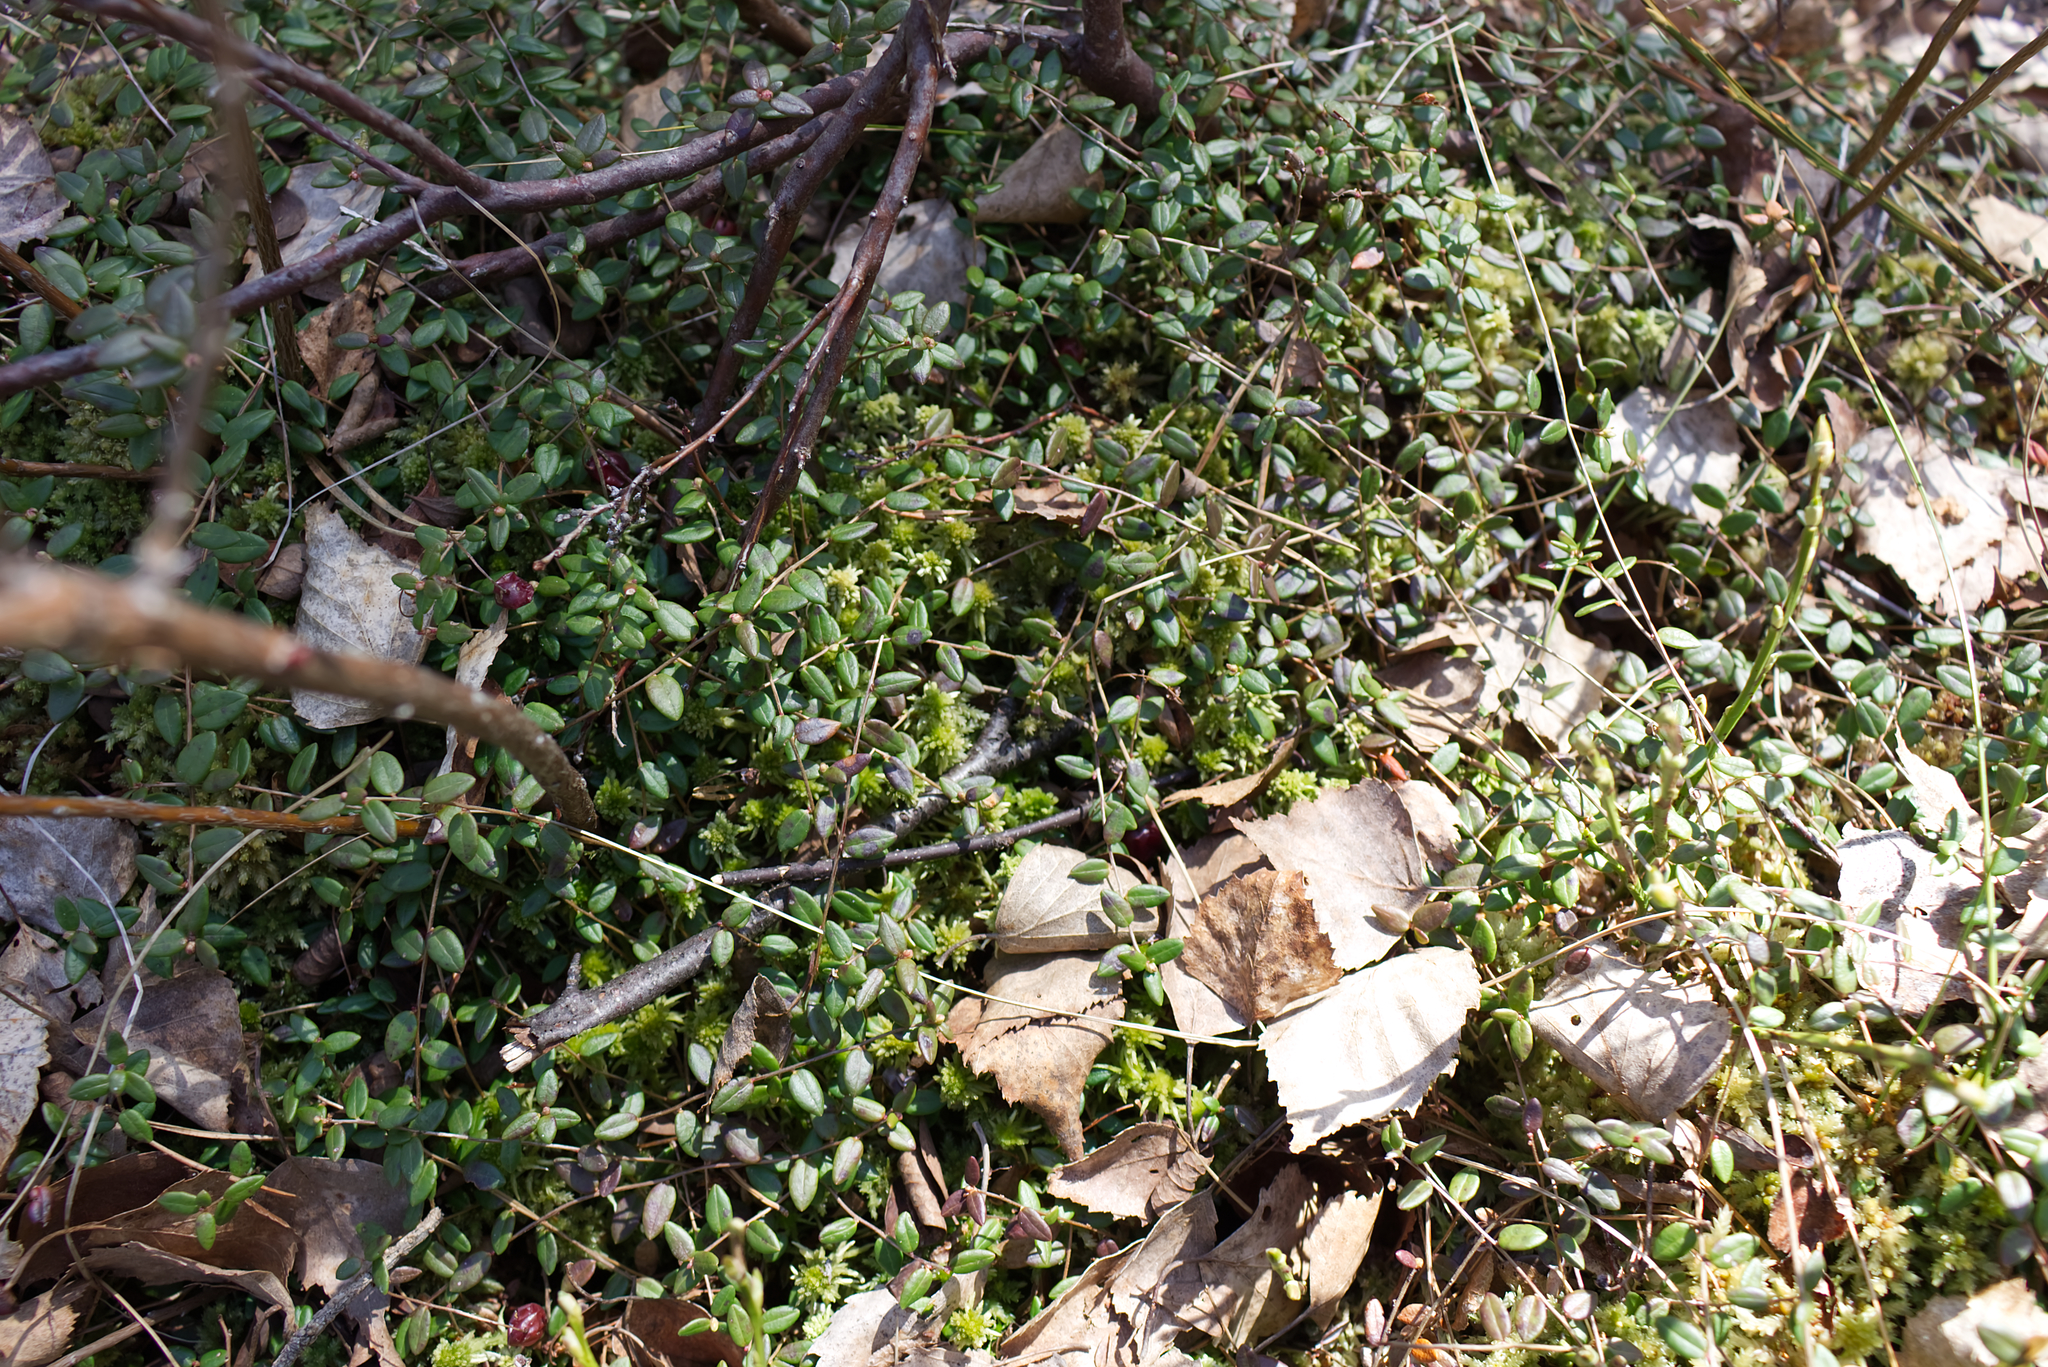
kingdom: Plantae
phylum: Tracheophyta
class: Magnoliopsida
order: Ericales
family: Ericaceae
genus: Vaccinium
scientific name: Vaccinium oxycoccos
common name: Cranberry
